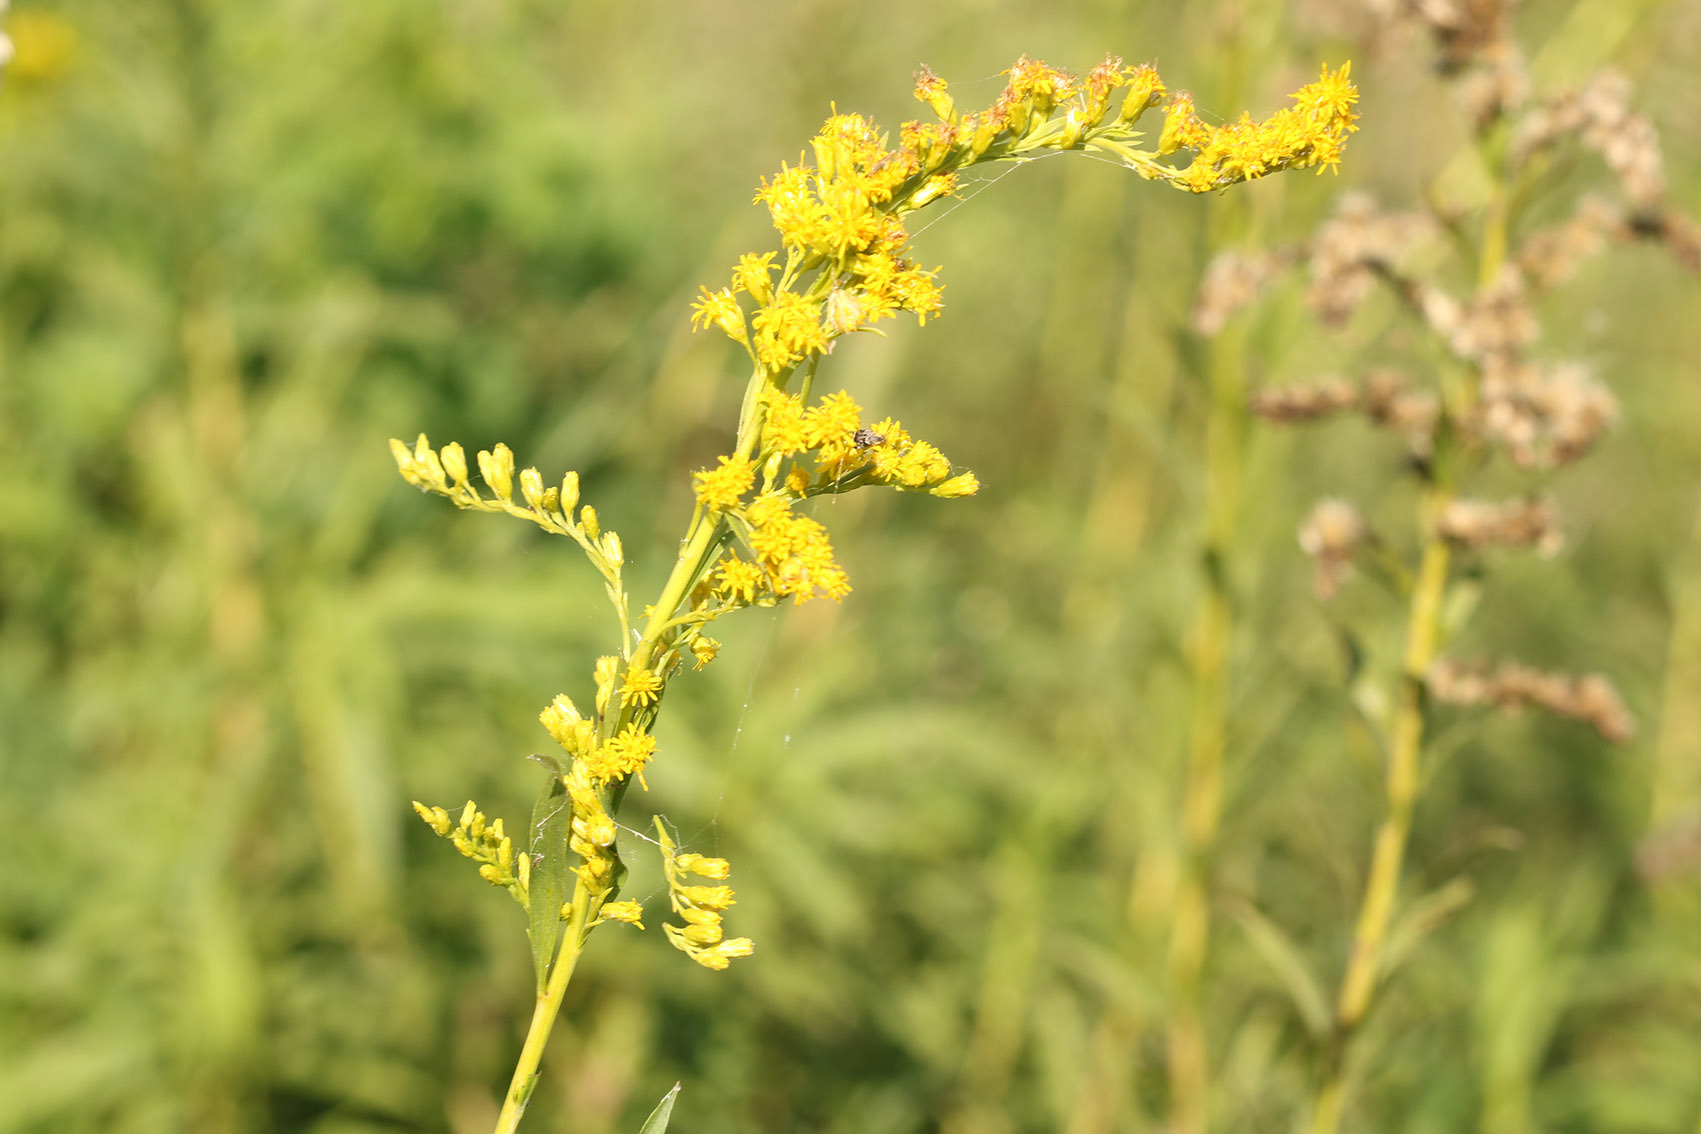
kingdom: Plantae
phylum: Tracheophyta
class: Magnoliopsida
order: Asterales
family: Asteraceae
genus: Solidago
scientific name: Solidago chilensis
